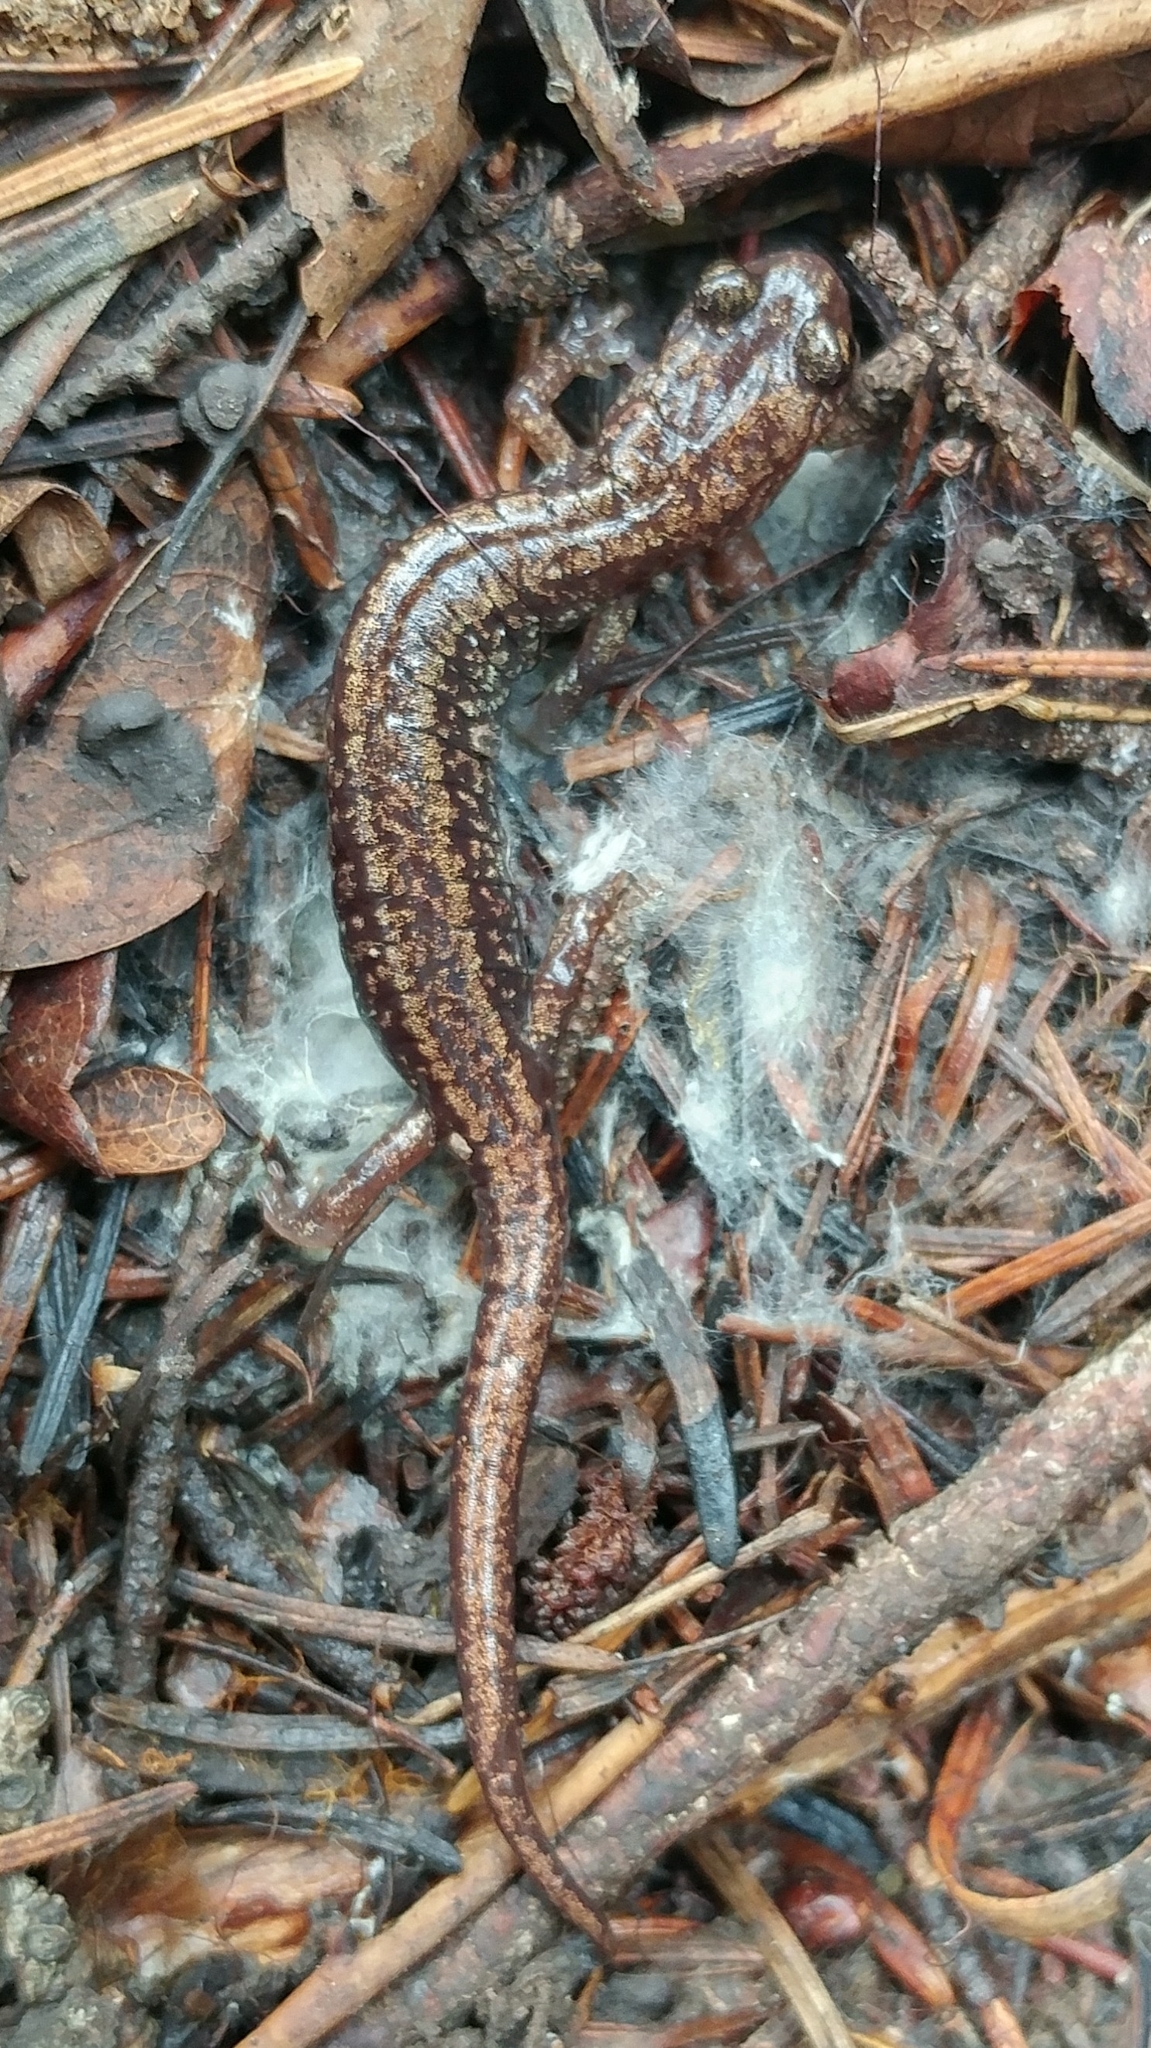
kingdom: Animalia
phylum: Chordata
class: Amphibia
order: Caudata
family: Plethodontidae
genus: Aneides
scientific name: Aneides hardii
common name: Sacramento mountain salamander
